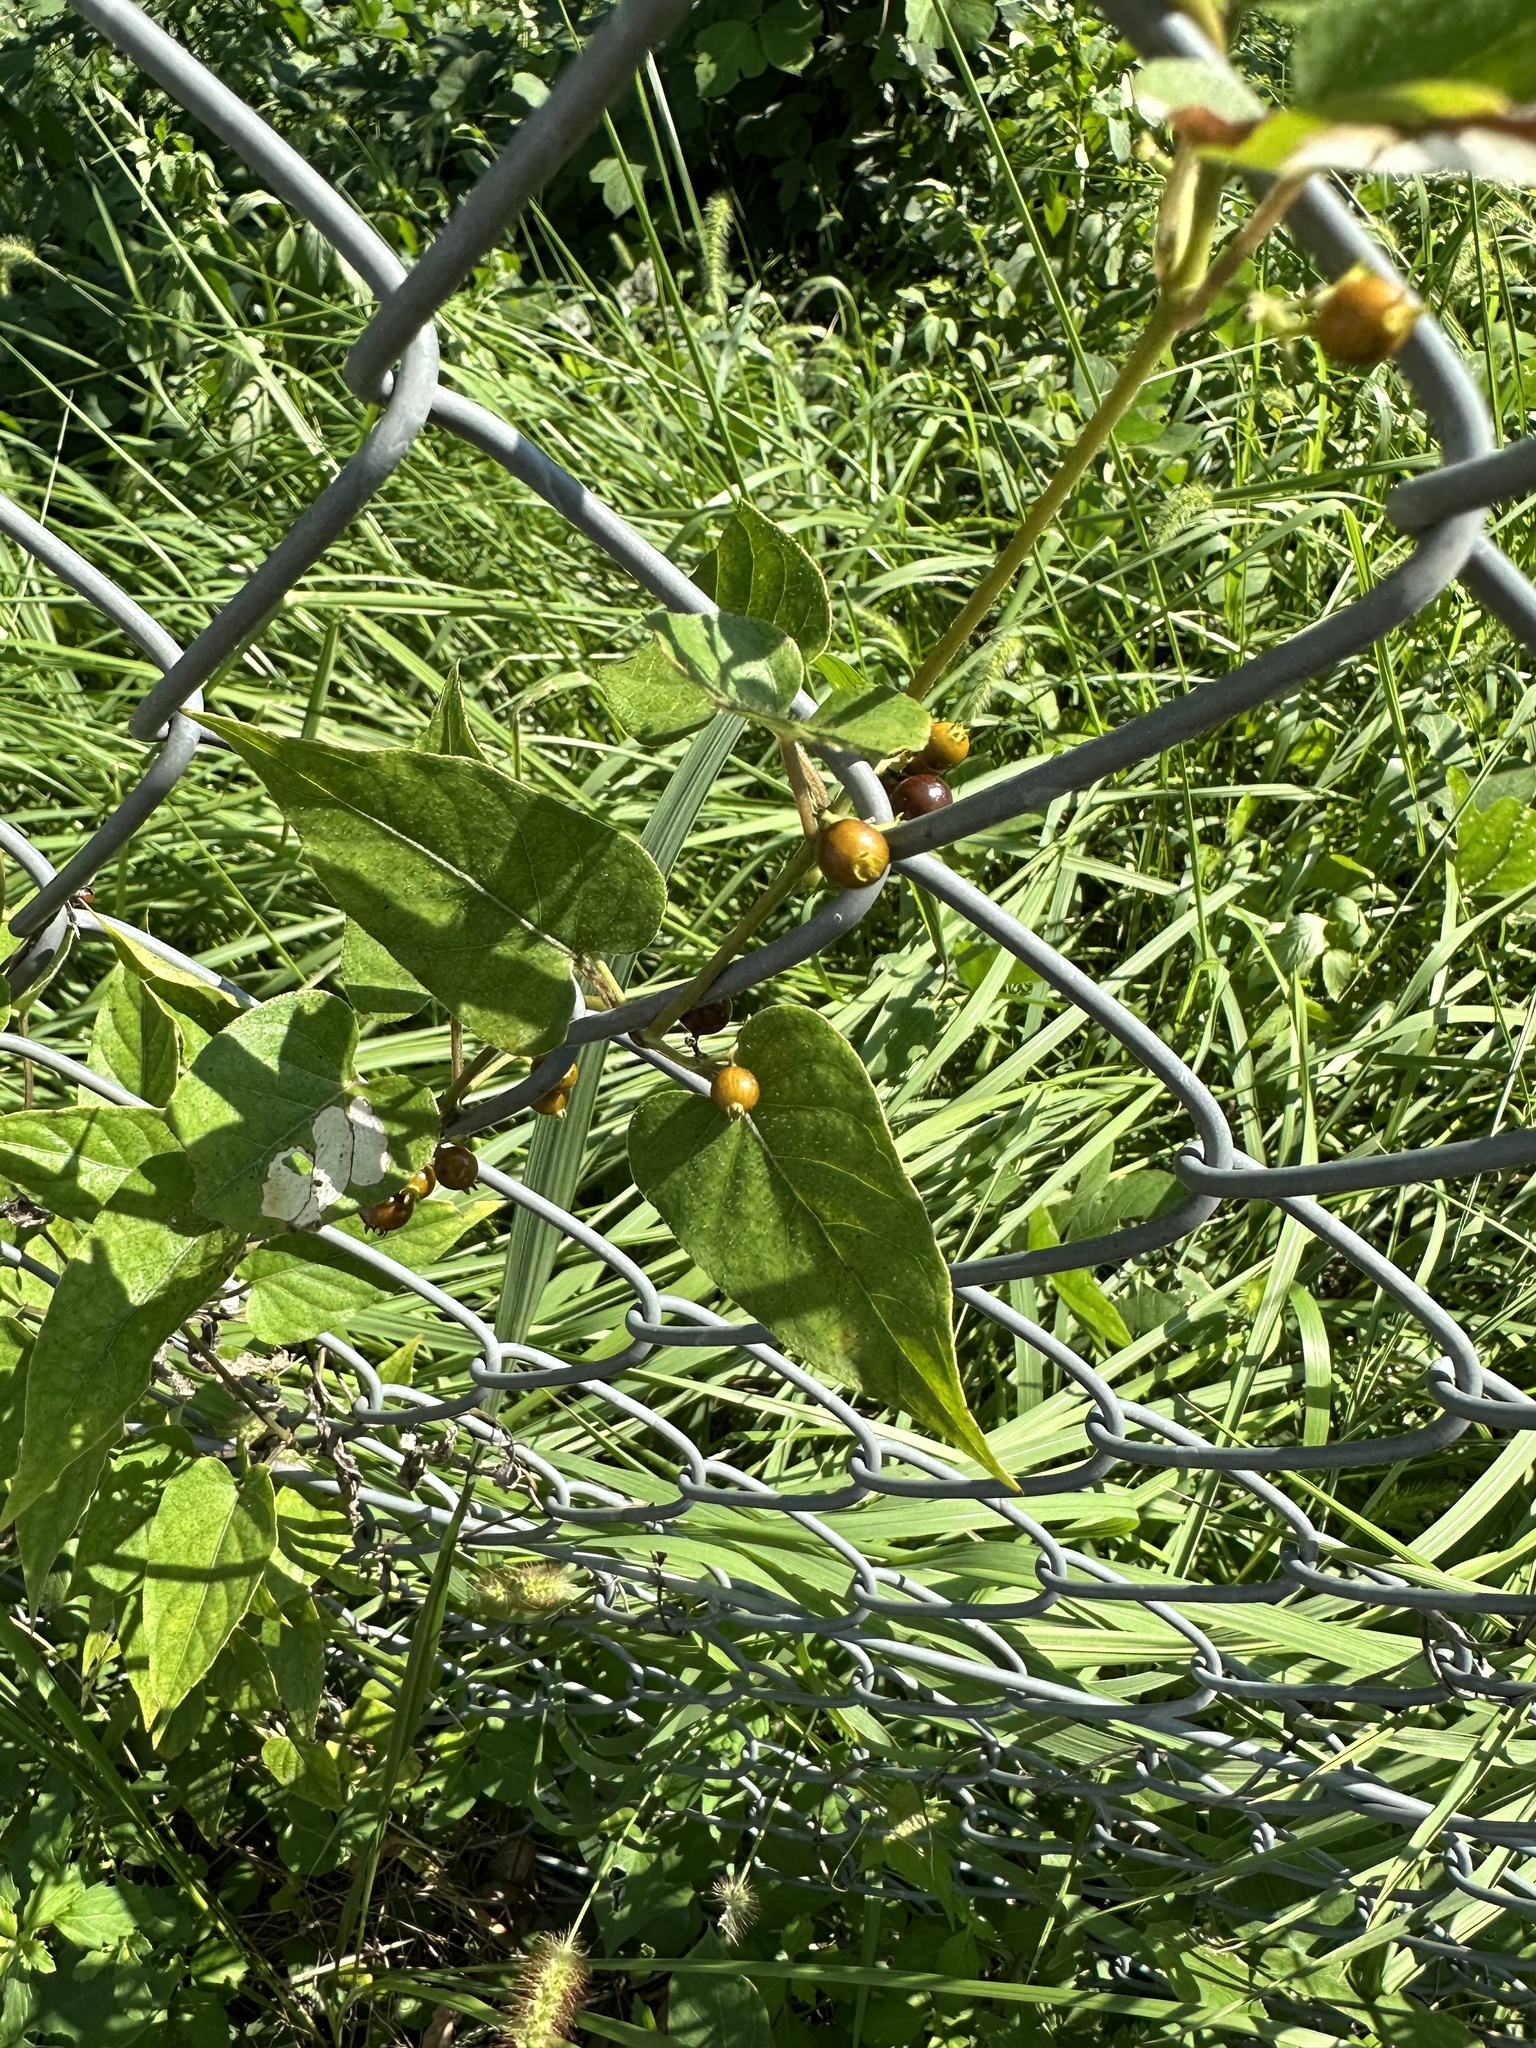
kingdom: Plantae
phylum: Tracheophyta
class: Magnoliopsida
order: Gentianales
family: Rubiaceae
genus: Paederia
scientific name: Paederia foetida
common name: Stinkvine
